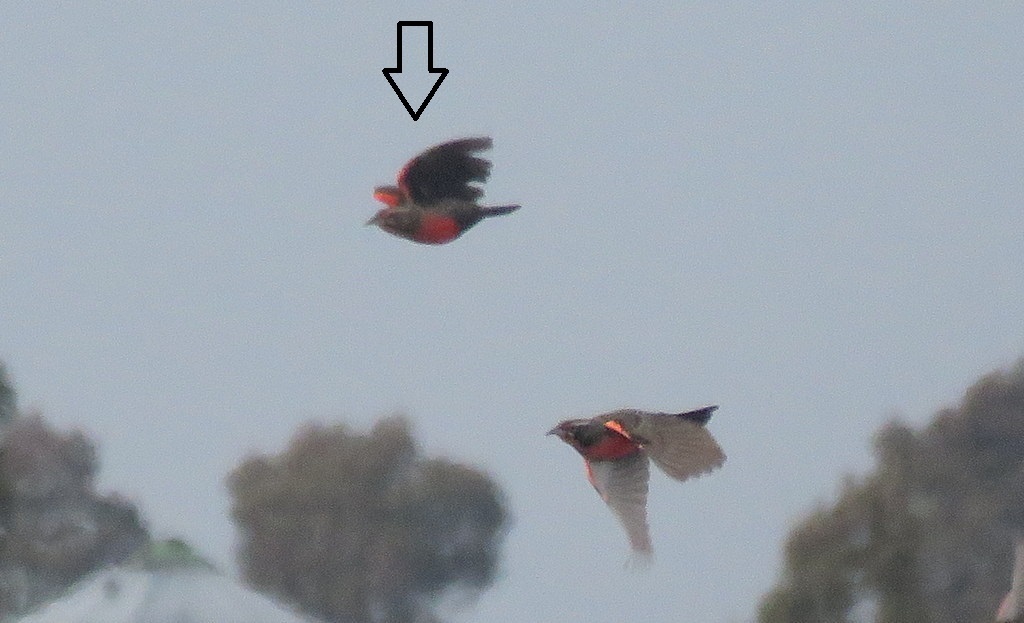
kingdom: Animalia
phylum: Chordata
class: Aves
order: Passeriformes
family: Icteridae
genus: Sturnella
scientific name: Sturnella defilippii
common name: Pampas meadowlark
